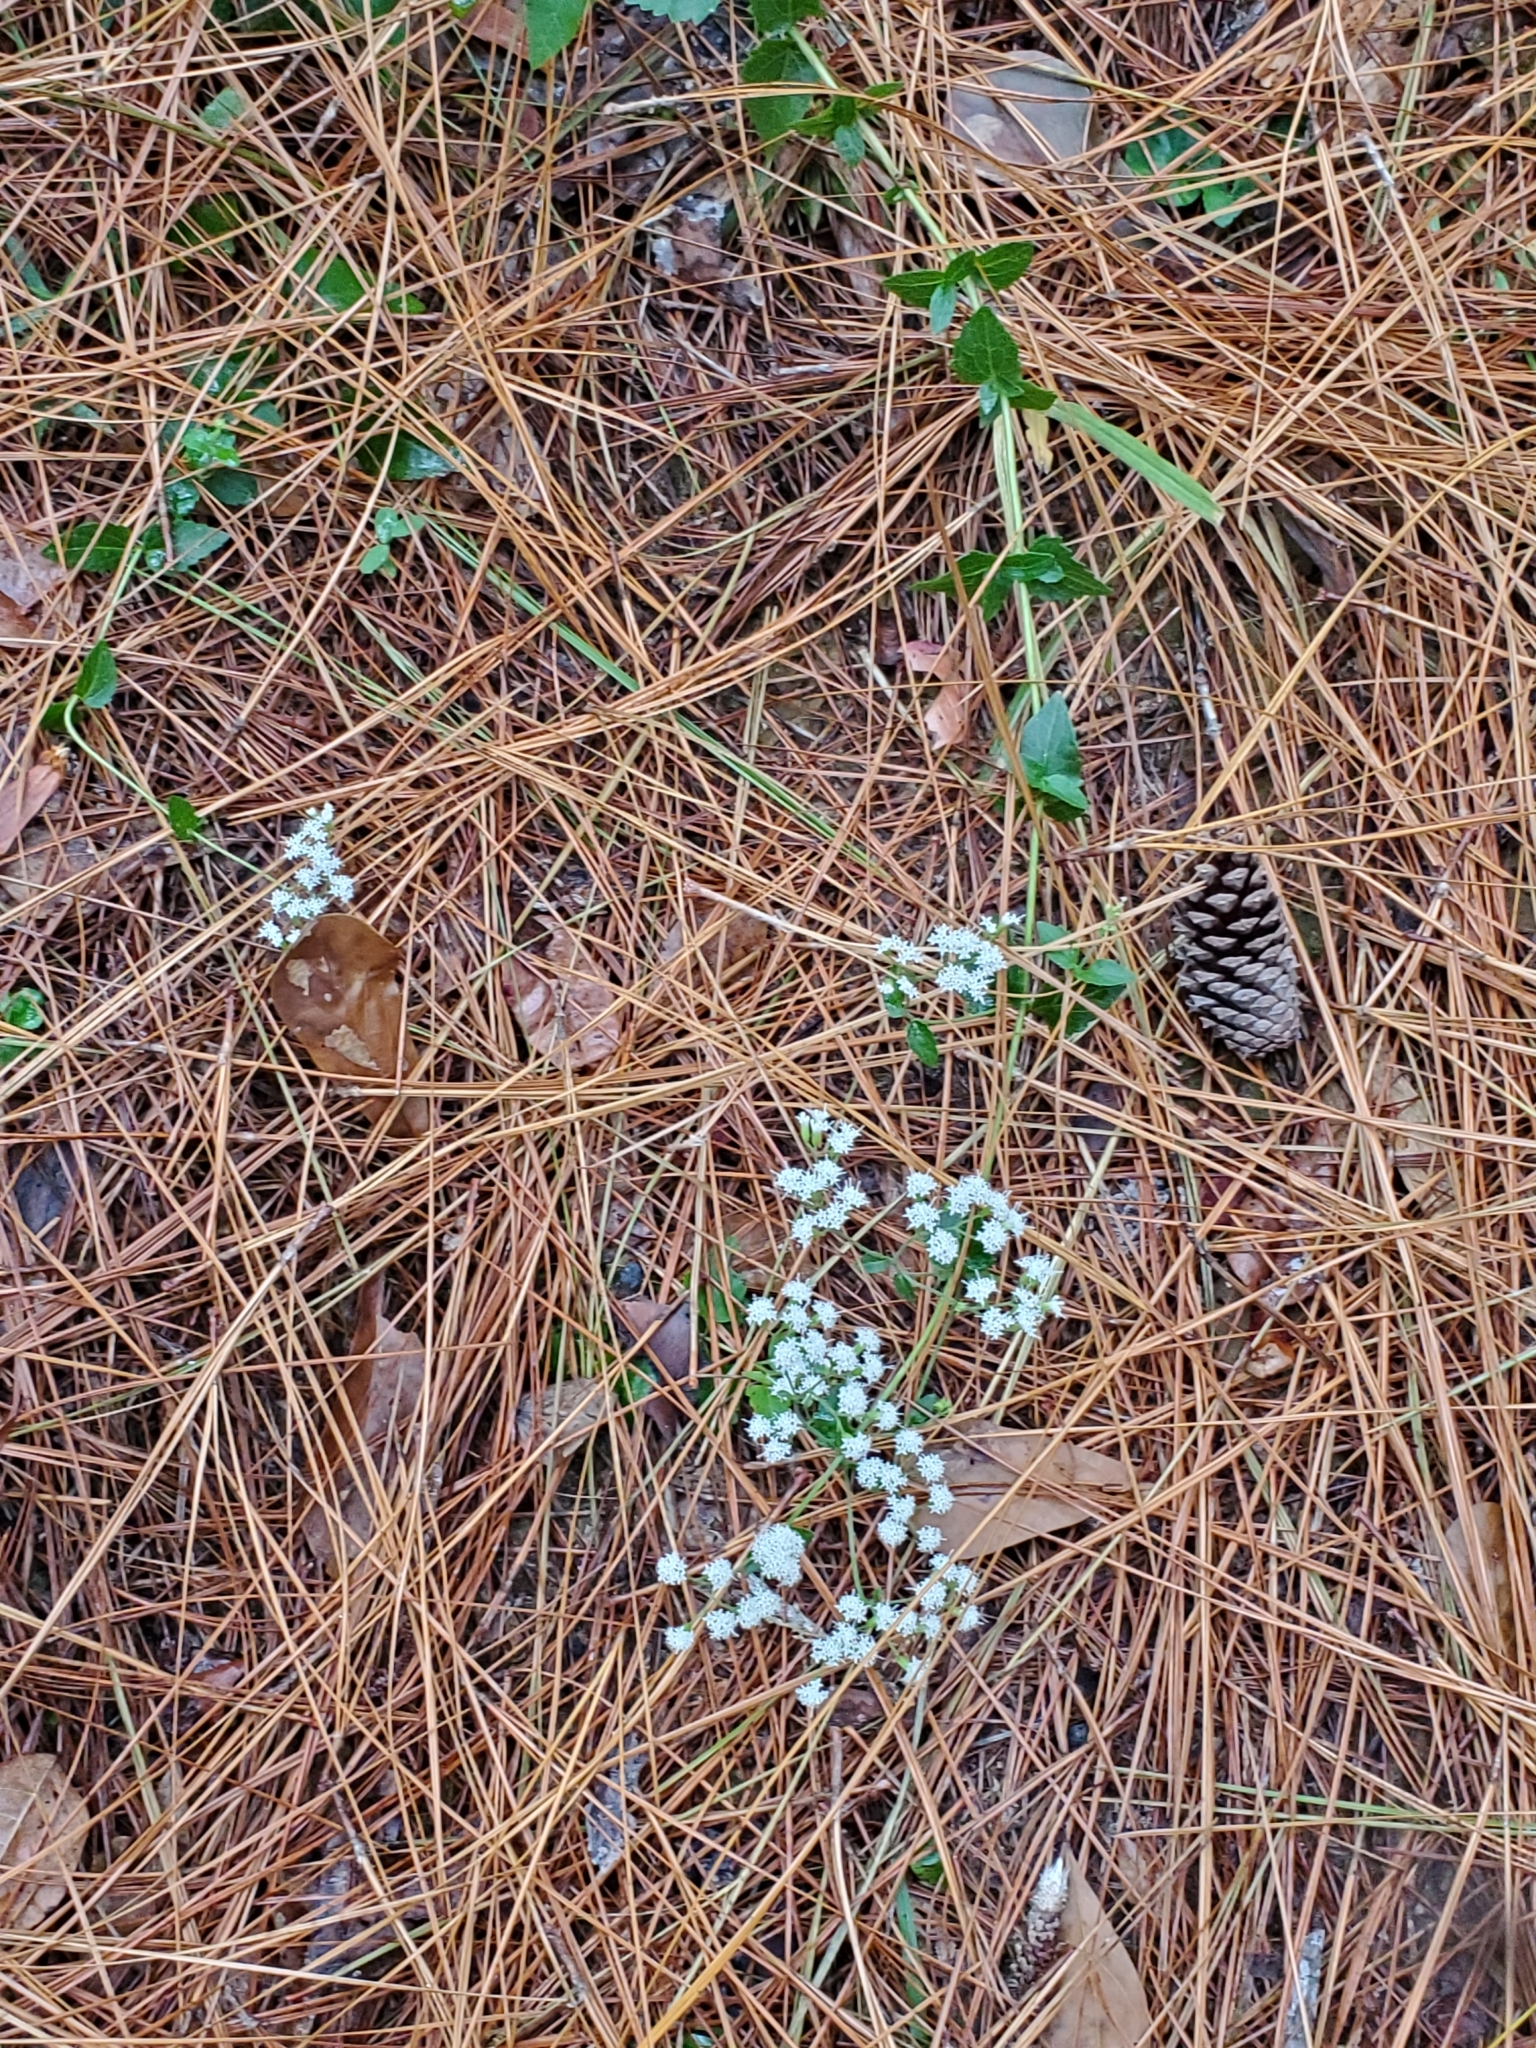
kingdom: Plantae
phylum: Tracheophyta
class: Magnoliopsida
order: Asterales
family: Asteraceae
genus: Ageratina
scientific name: Ageratina aromatica
